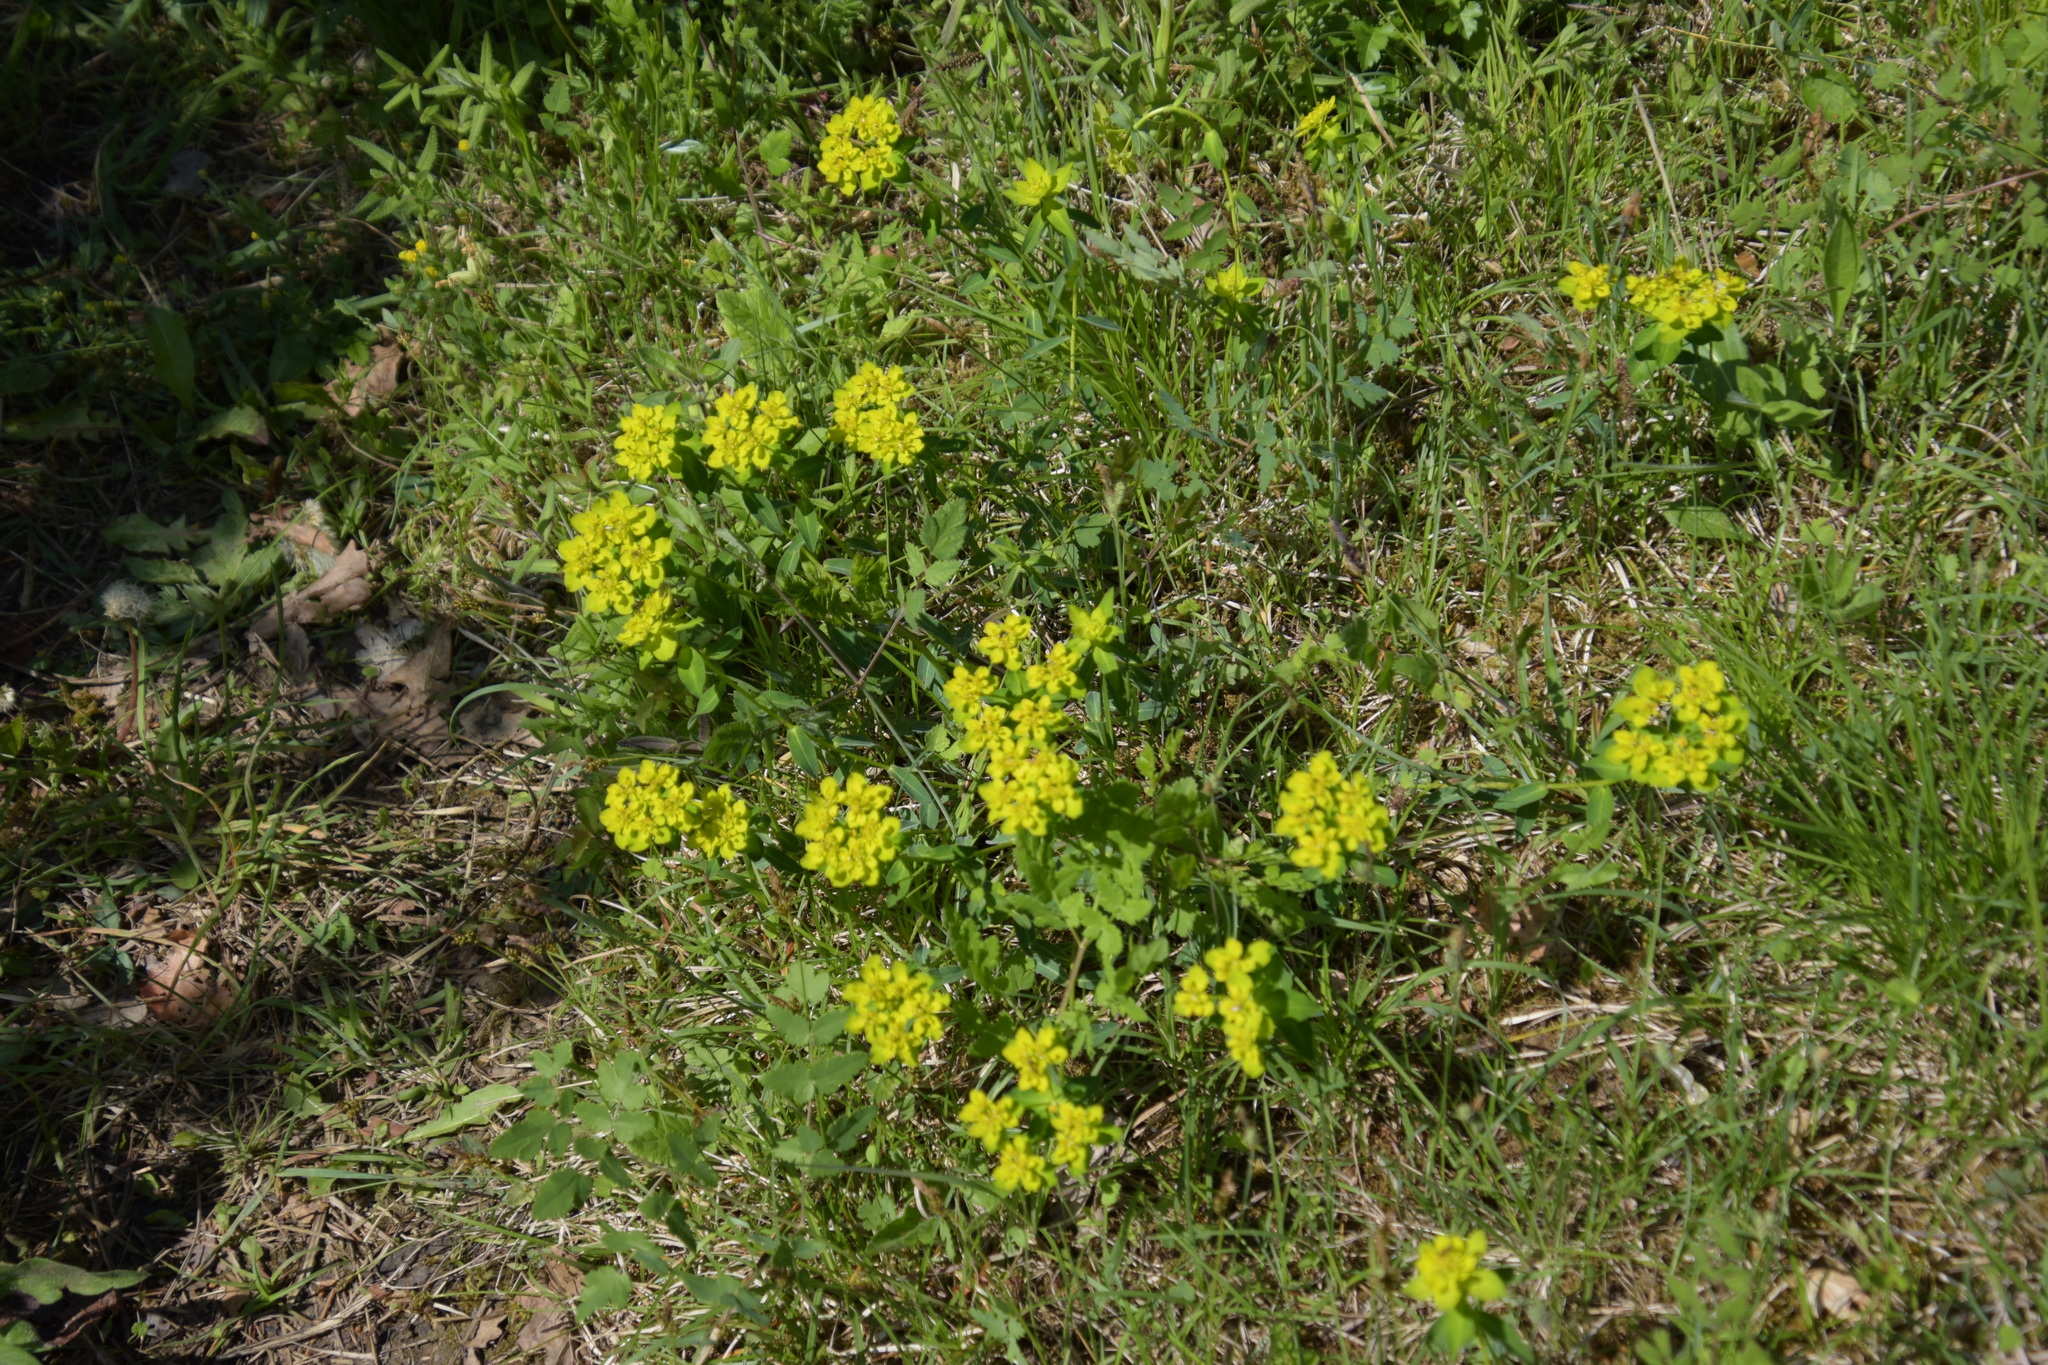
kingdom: Plantae
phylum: Tracheophyta
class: Magnoliopsida
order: Malpighiales
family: Euphorbiaceae
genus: Euphorbia
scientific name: Euphorbia verrucosa
